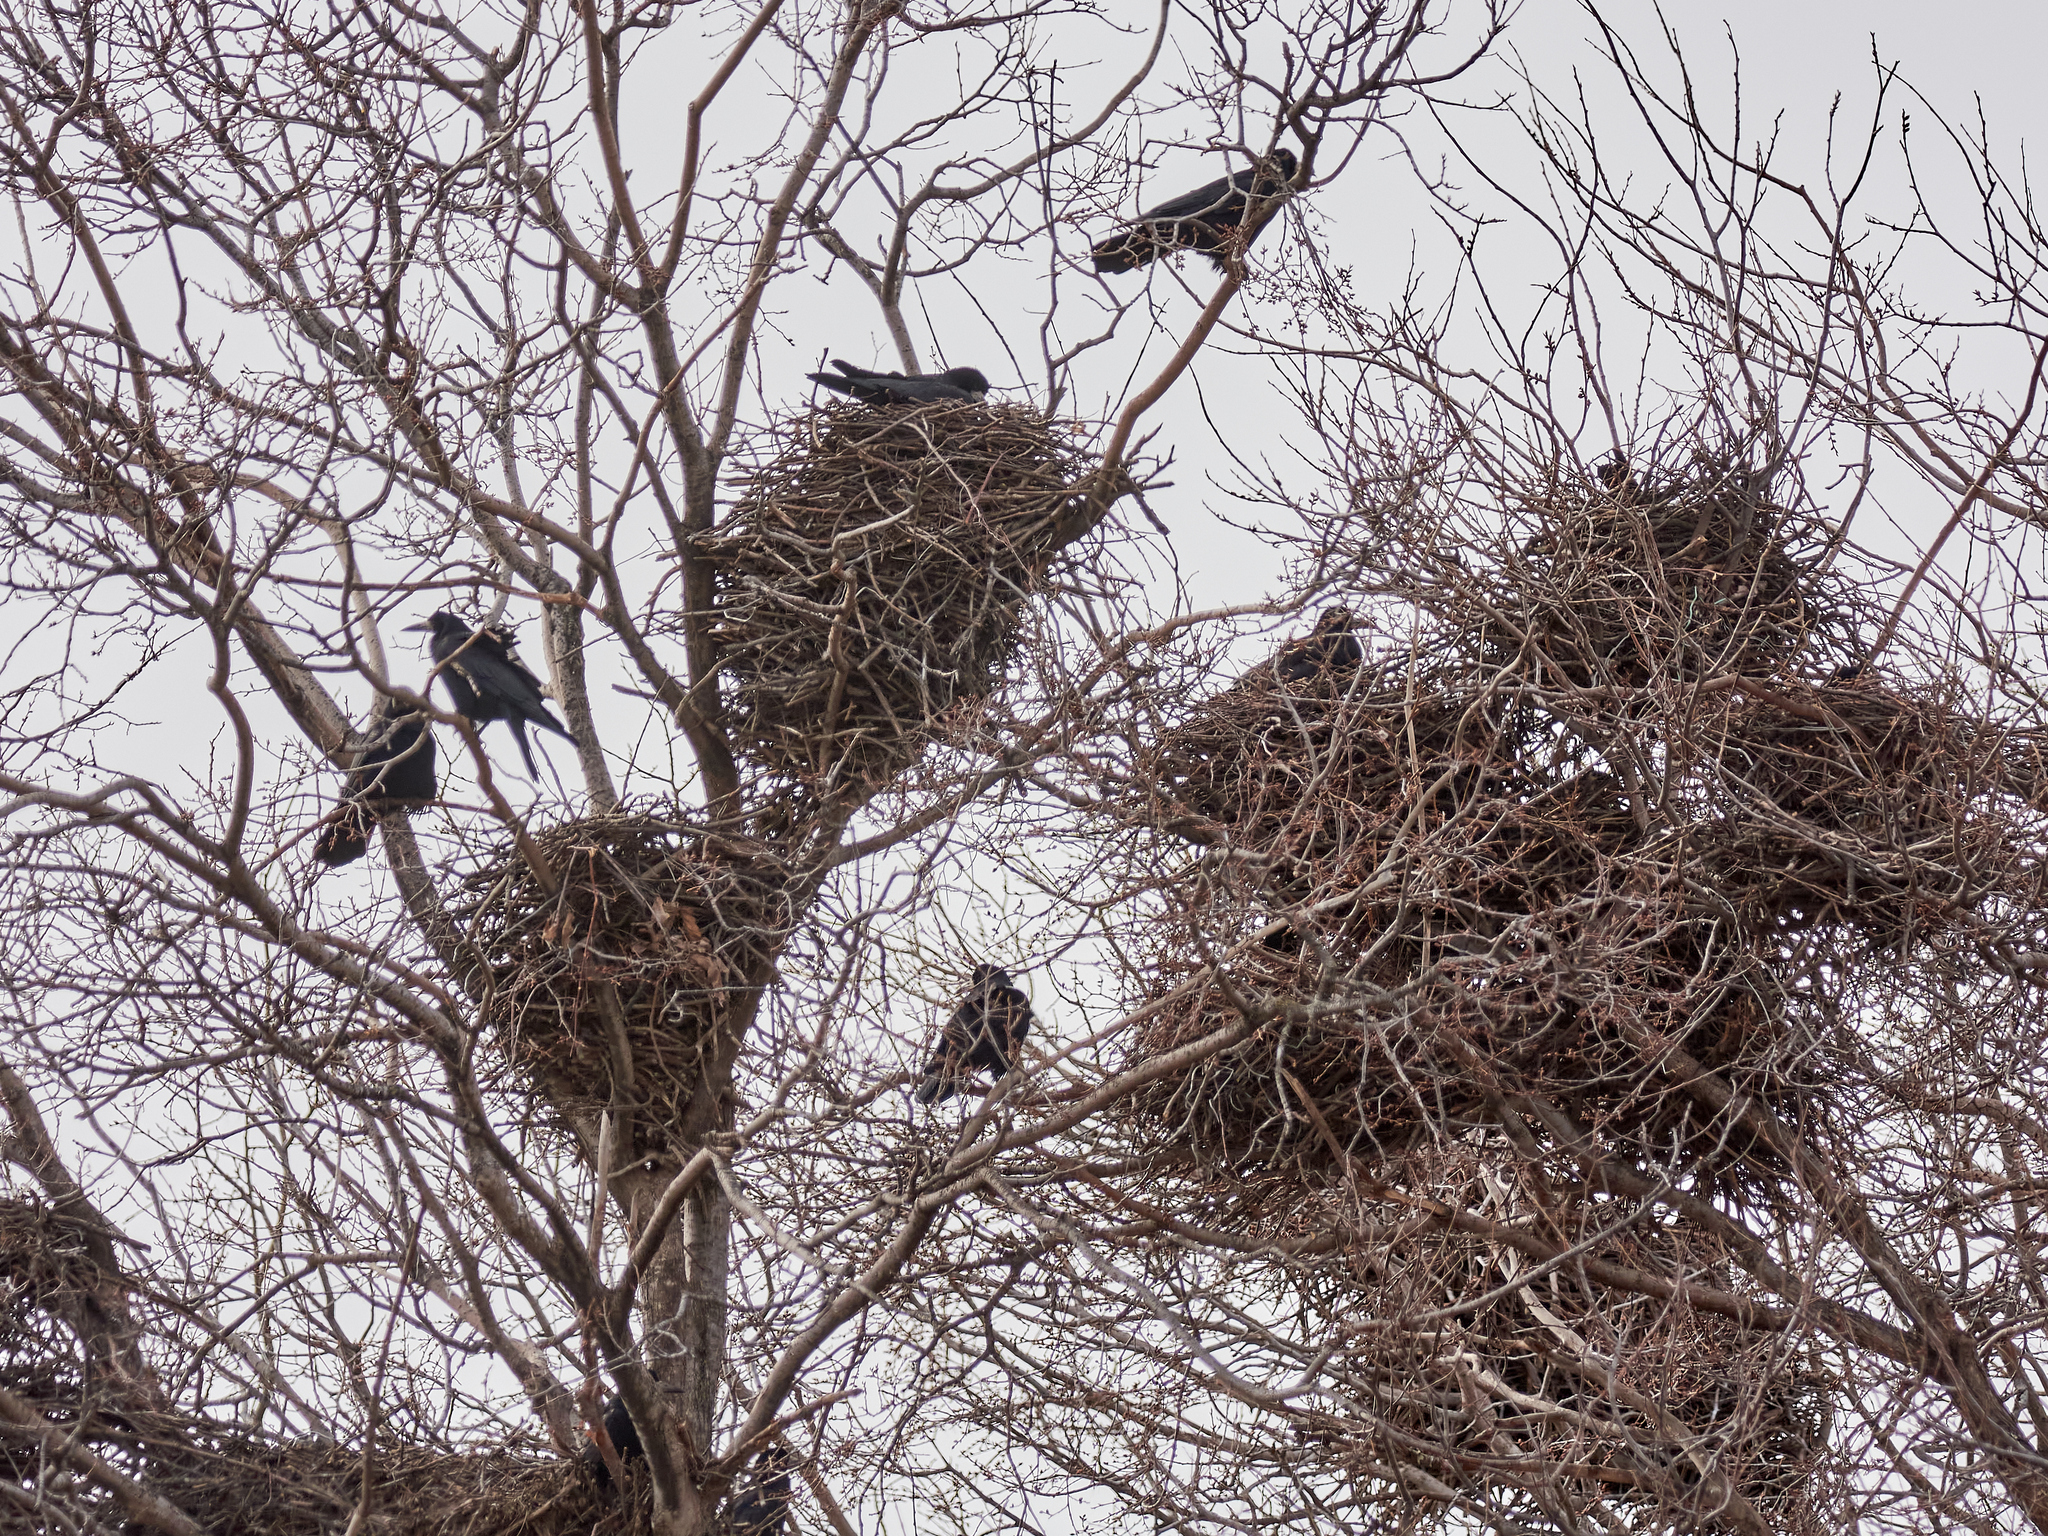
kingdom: Animalia
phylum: Chordata
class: Aves
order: Passeriformes
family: Corvidae
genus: Corvus
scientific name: Corvus frugilegus
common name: Rook
